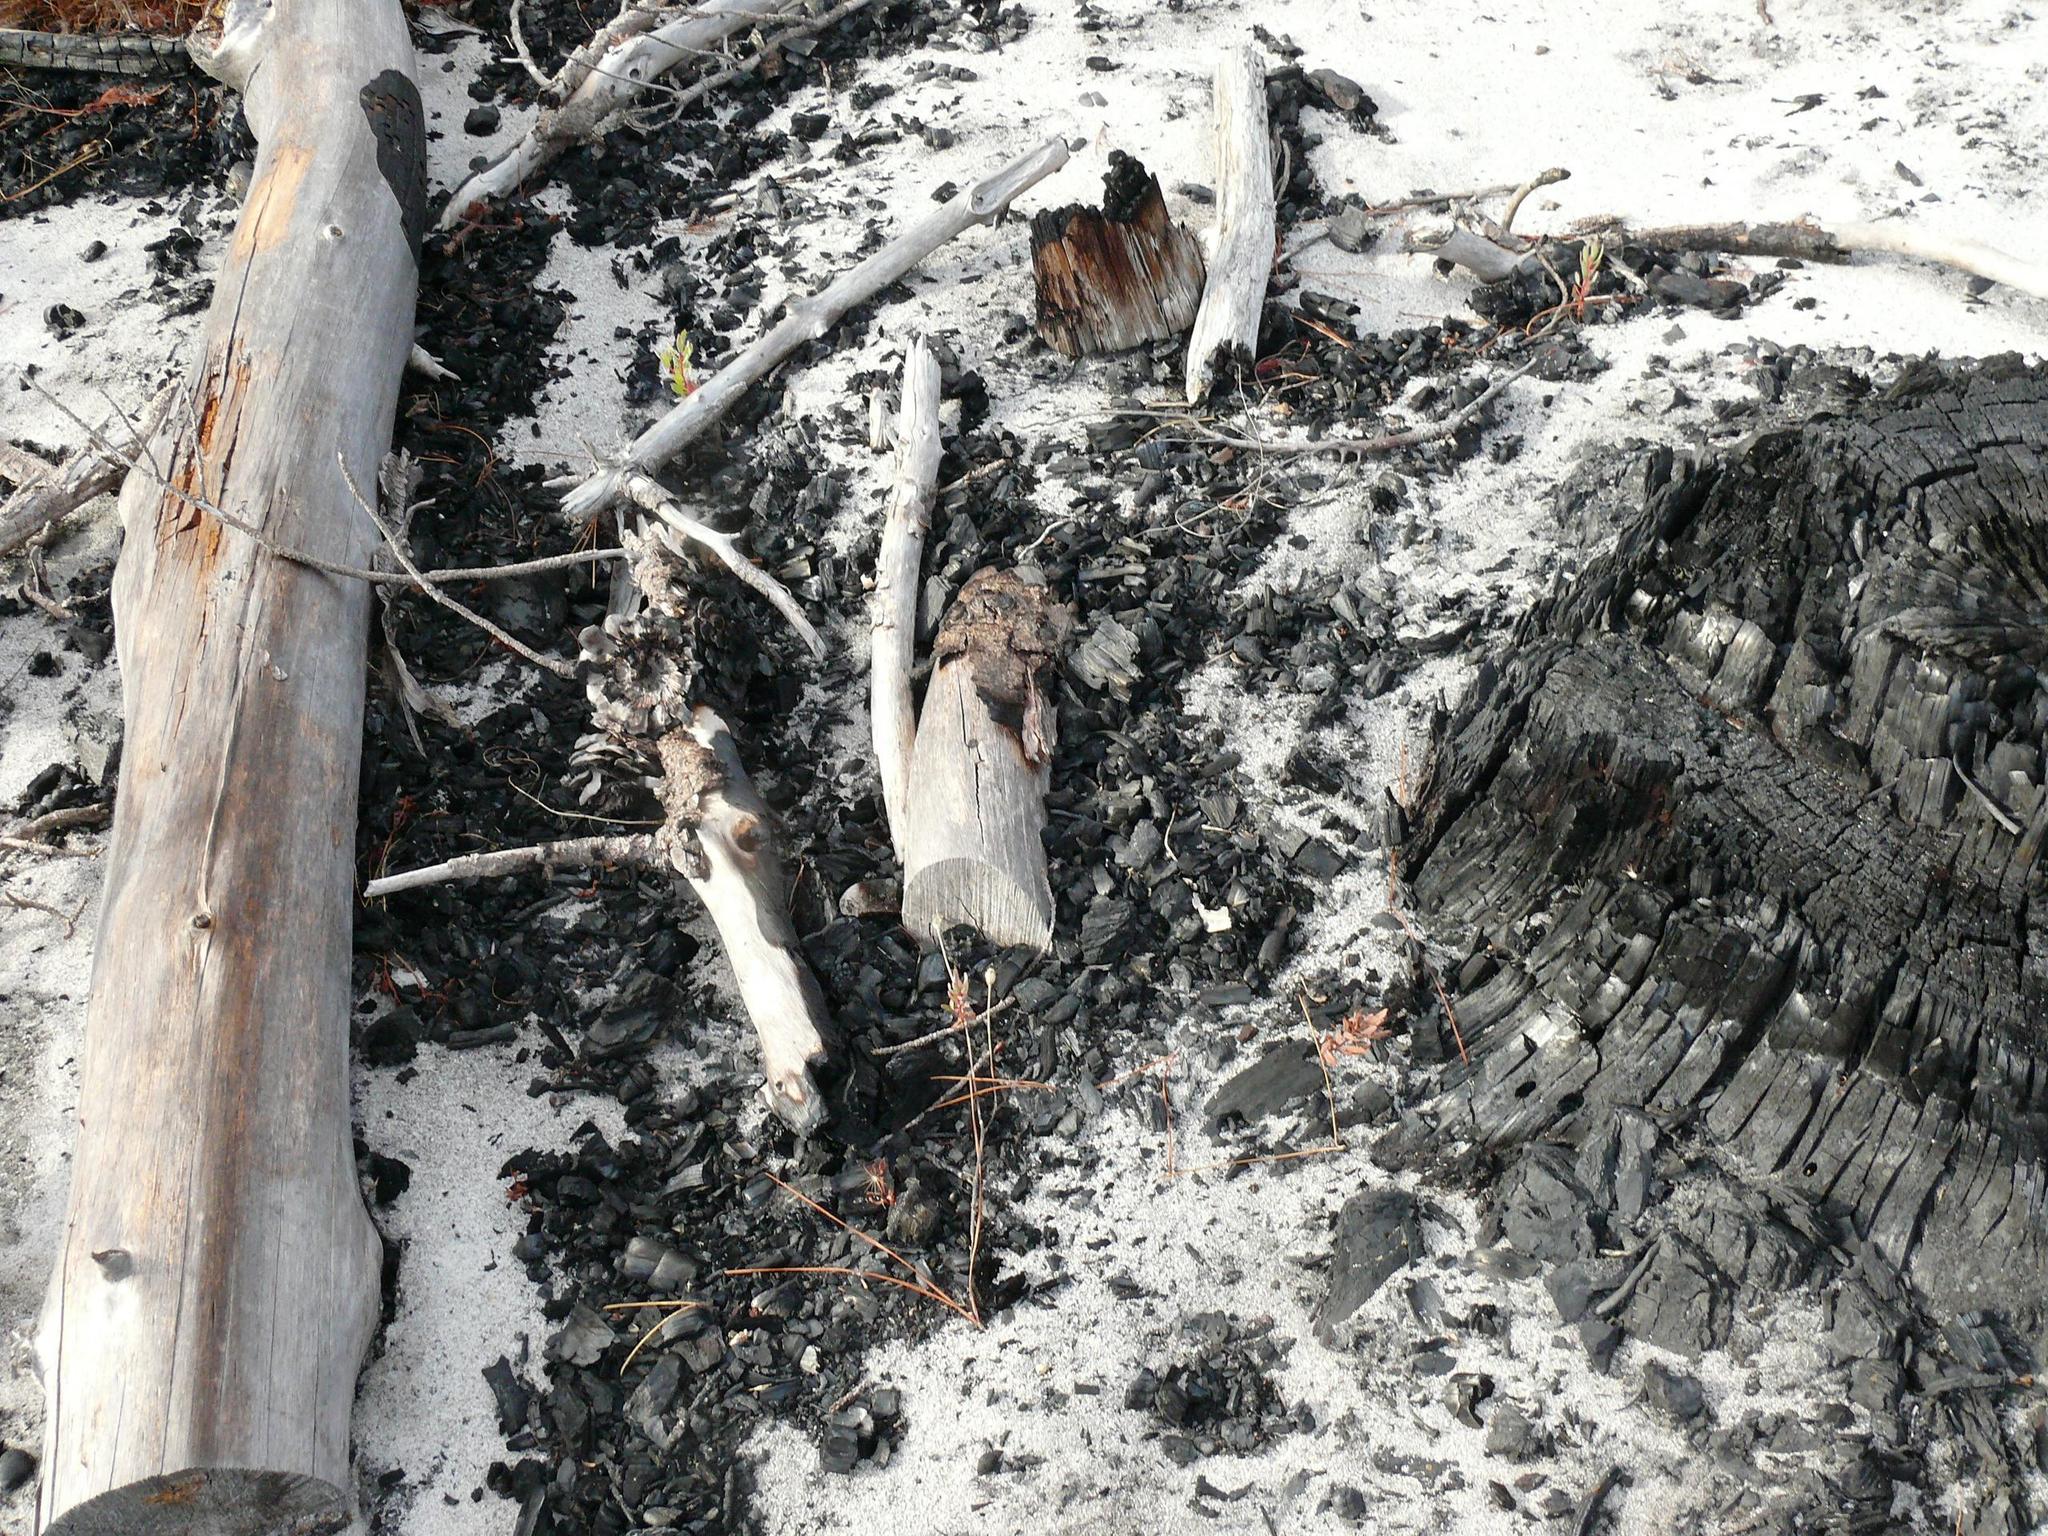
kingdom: Plantae
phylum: Tracheophyta
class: Magnoliopsida
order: Proteales
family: Proteaceae
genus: Protea
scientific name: Protea scolymocephala
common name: Thistle sugarbush
